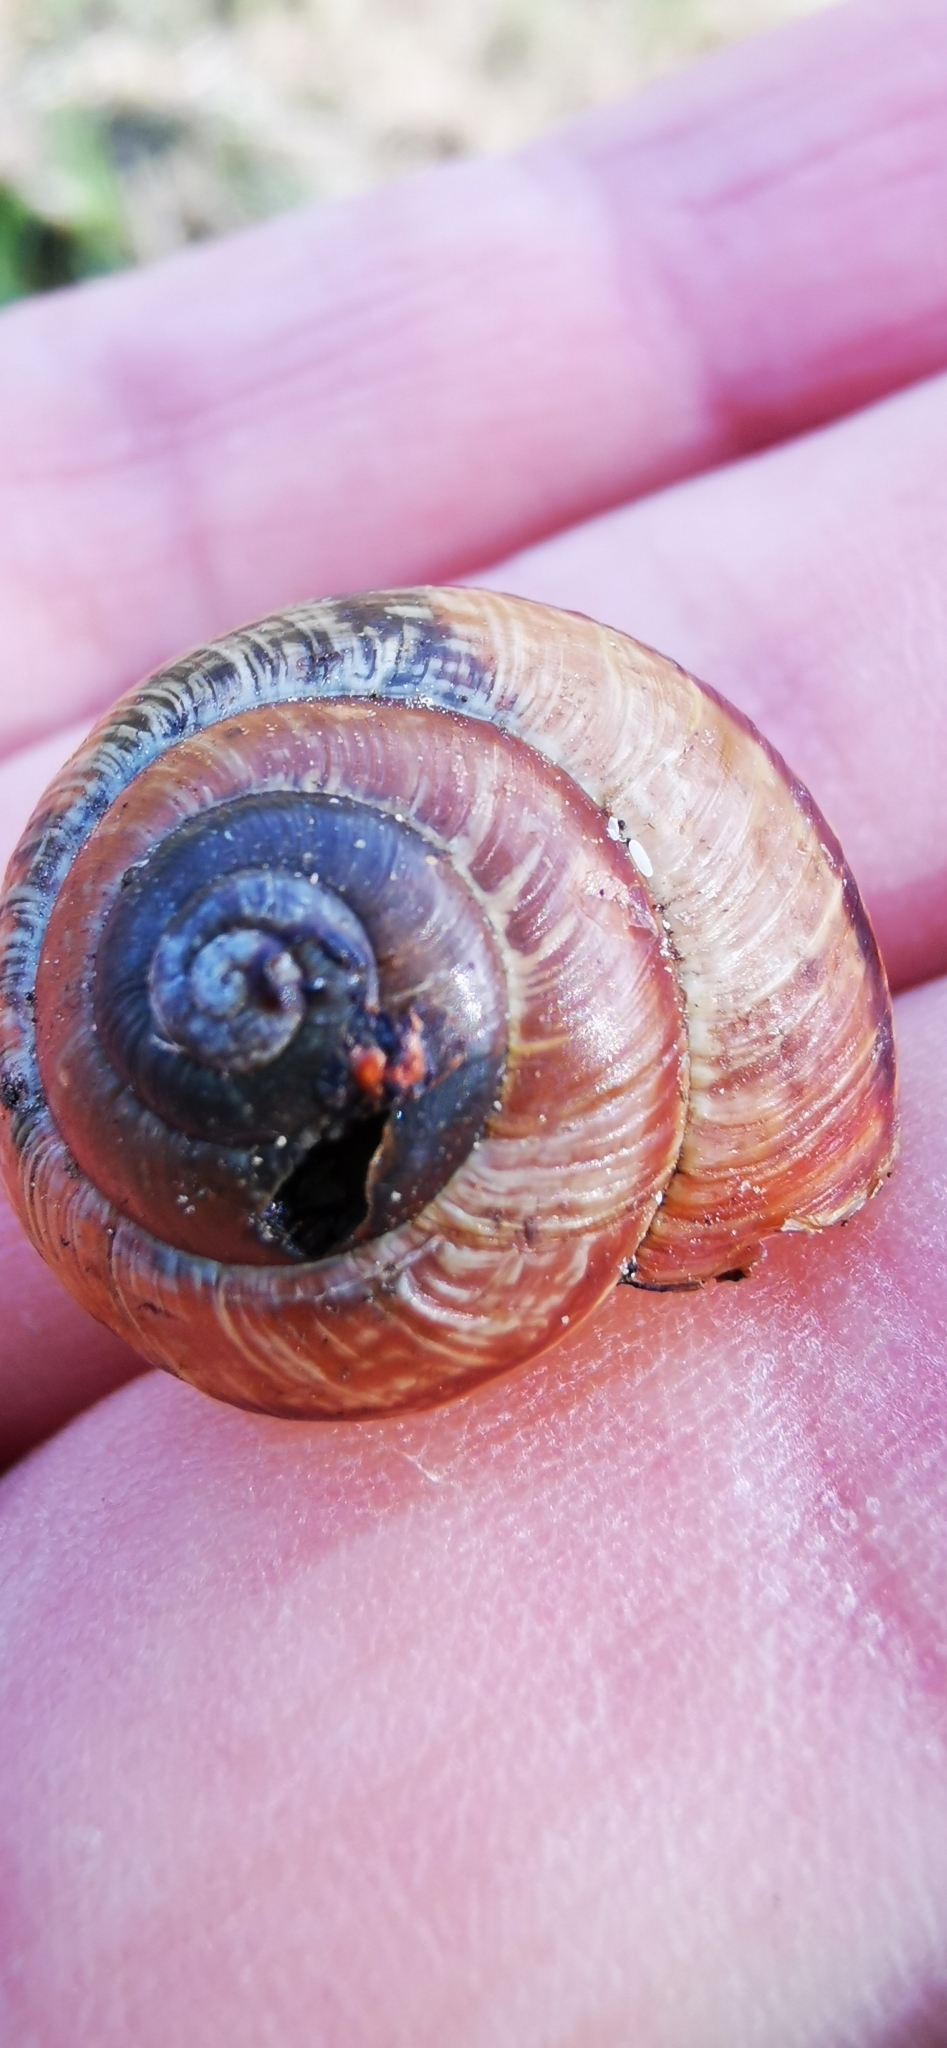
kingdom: Animalia
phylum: Mollusca
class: Gastropoda
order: Stylommatophora
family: Helicidae
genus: Arianta
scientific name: Arianta arbustorum
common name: Copse snail
